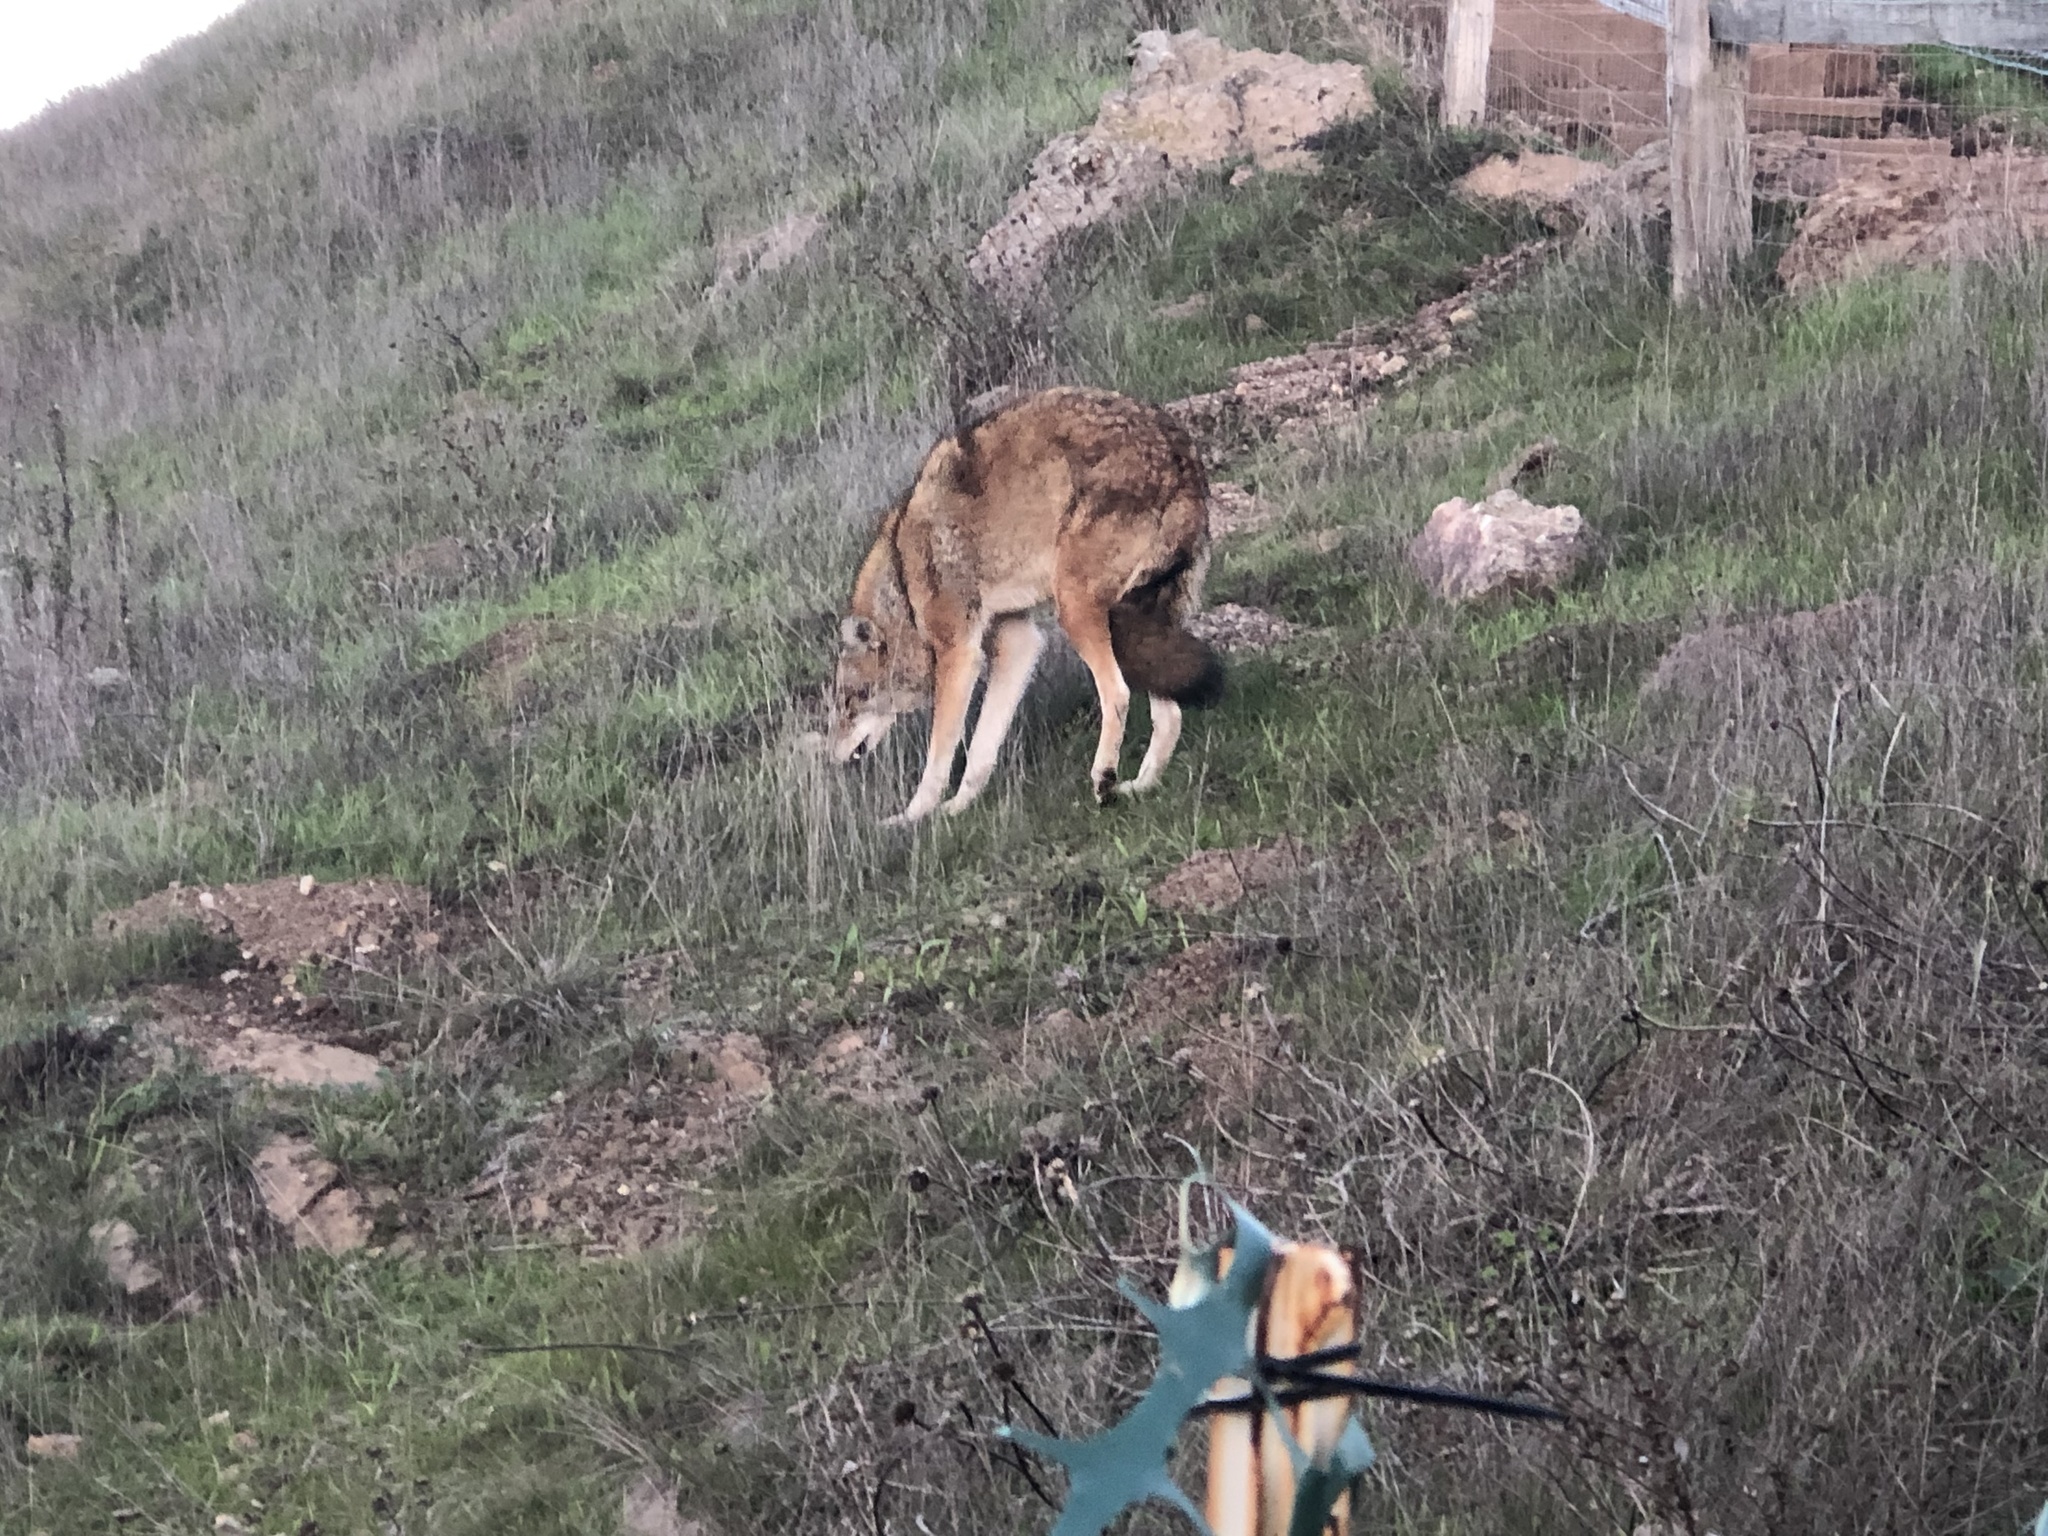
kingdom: Animalia
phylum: Chordata
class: Mammalia
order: Carnivora
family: Canidae
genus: Canis
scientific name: Canis latrans
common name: Coyote
